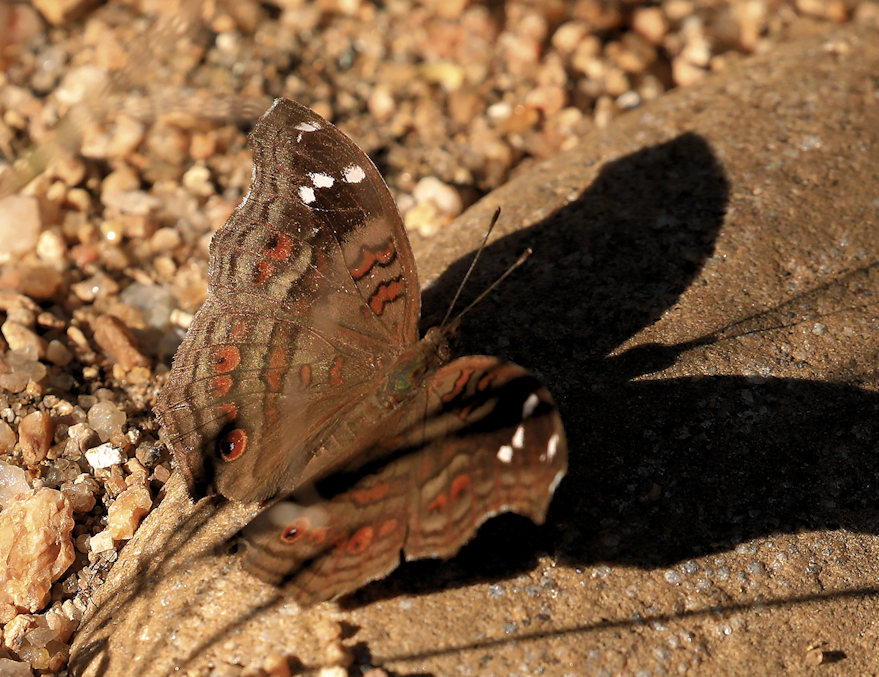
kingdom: Animalia
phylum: Arthropoda
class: Insecta
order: Lepidoptera
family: Nymphalidae
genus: Junonia
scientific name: Junonia natalica
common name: Brown pansy
